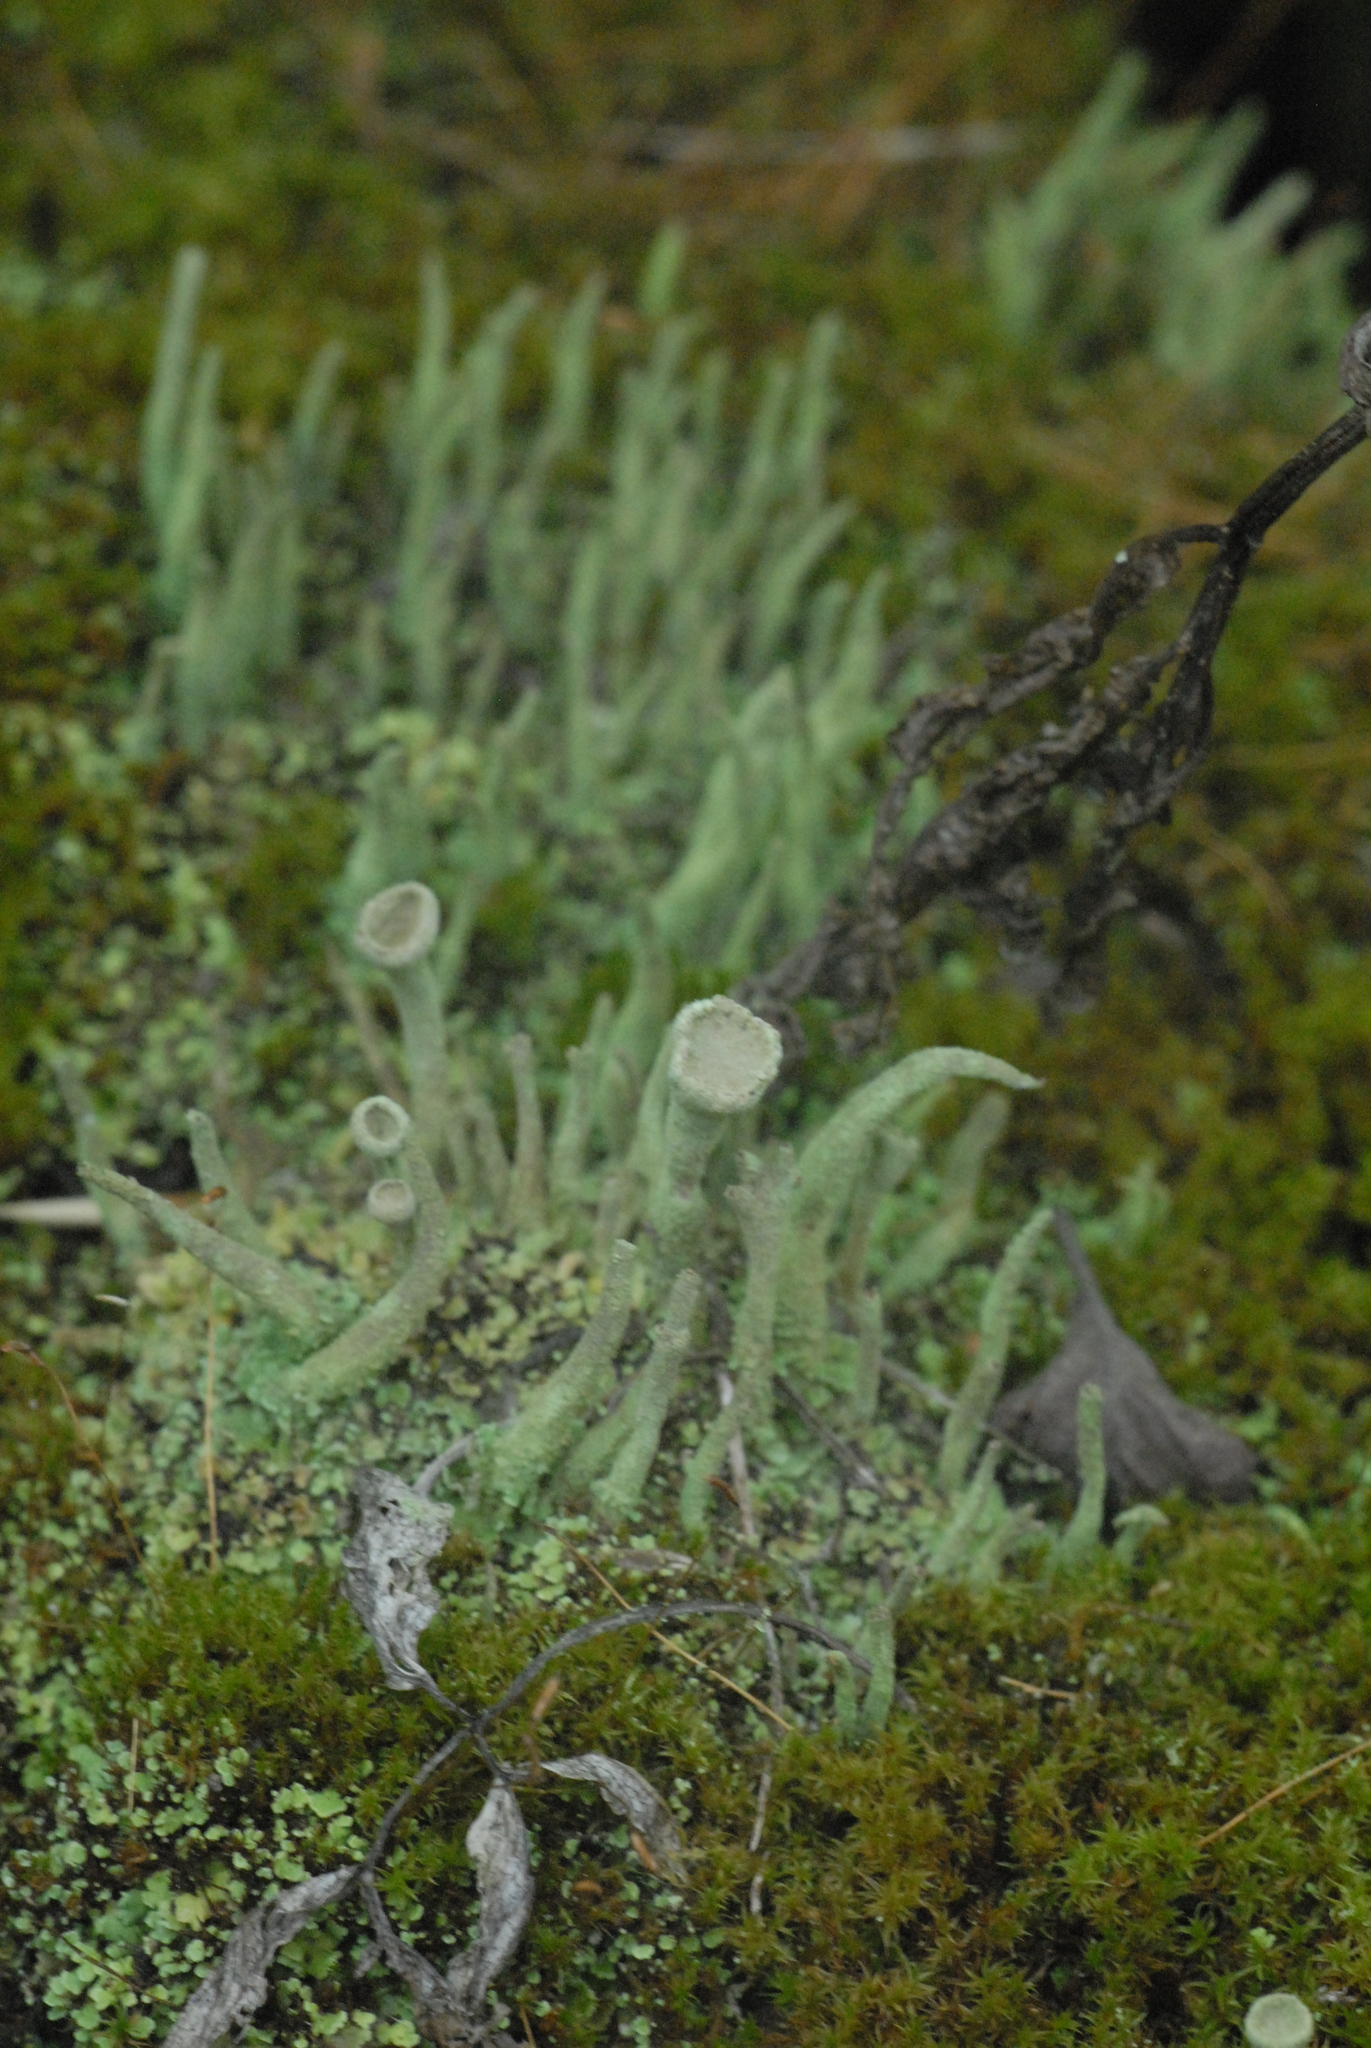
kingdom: Fungi
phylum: Ascomycota
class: Lecanoromycetes
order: Lecanorales
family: Cladoniaceae
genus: Cladonia
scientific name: Cladonia fimbriata
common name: Powdered trumpet lichen
